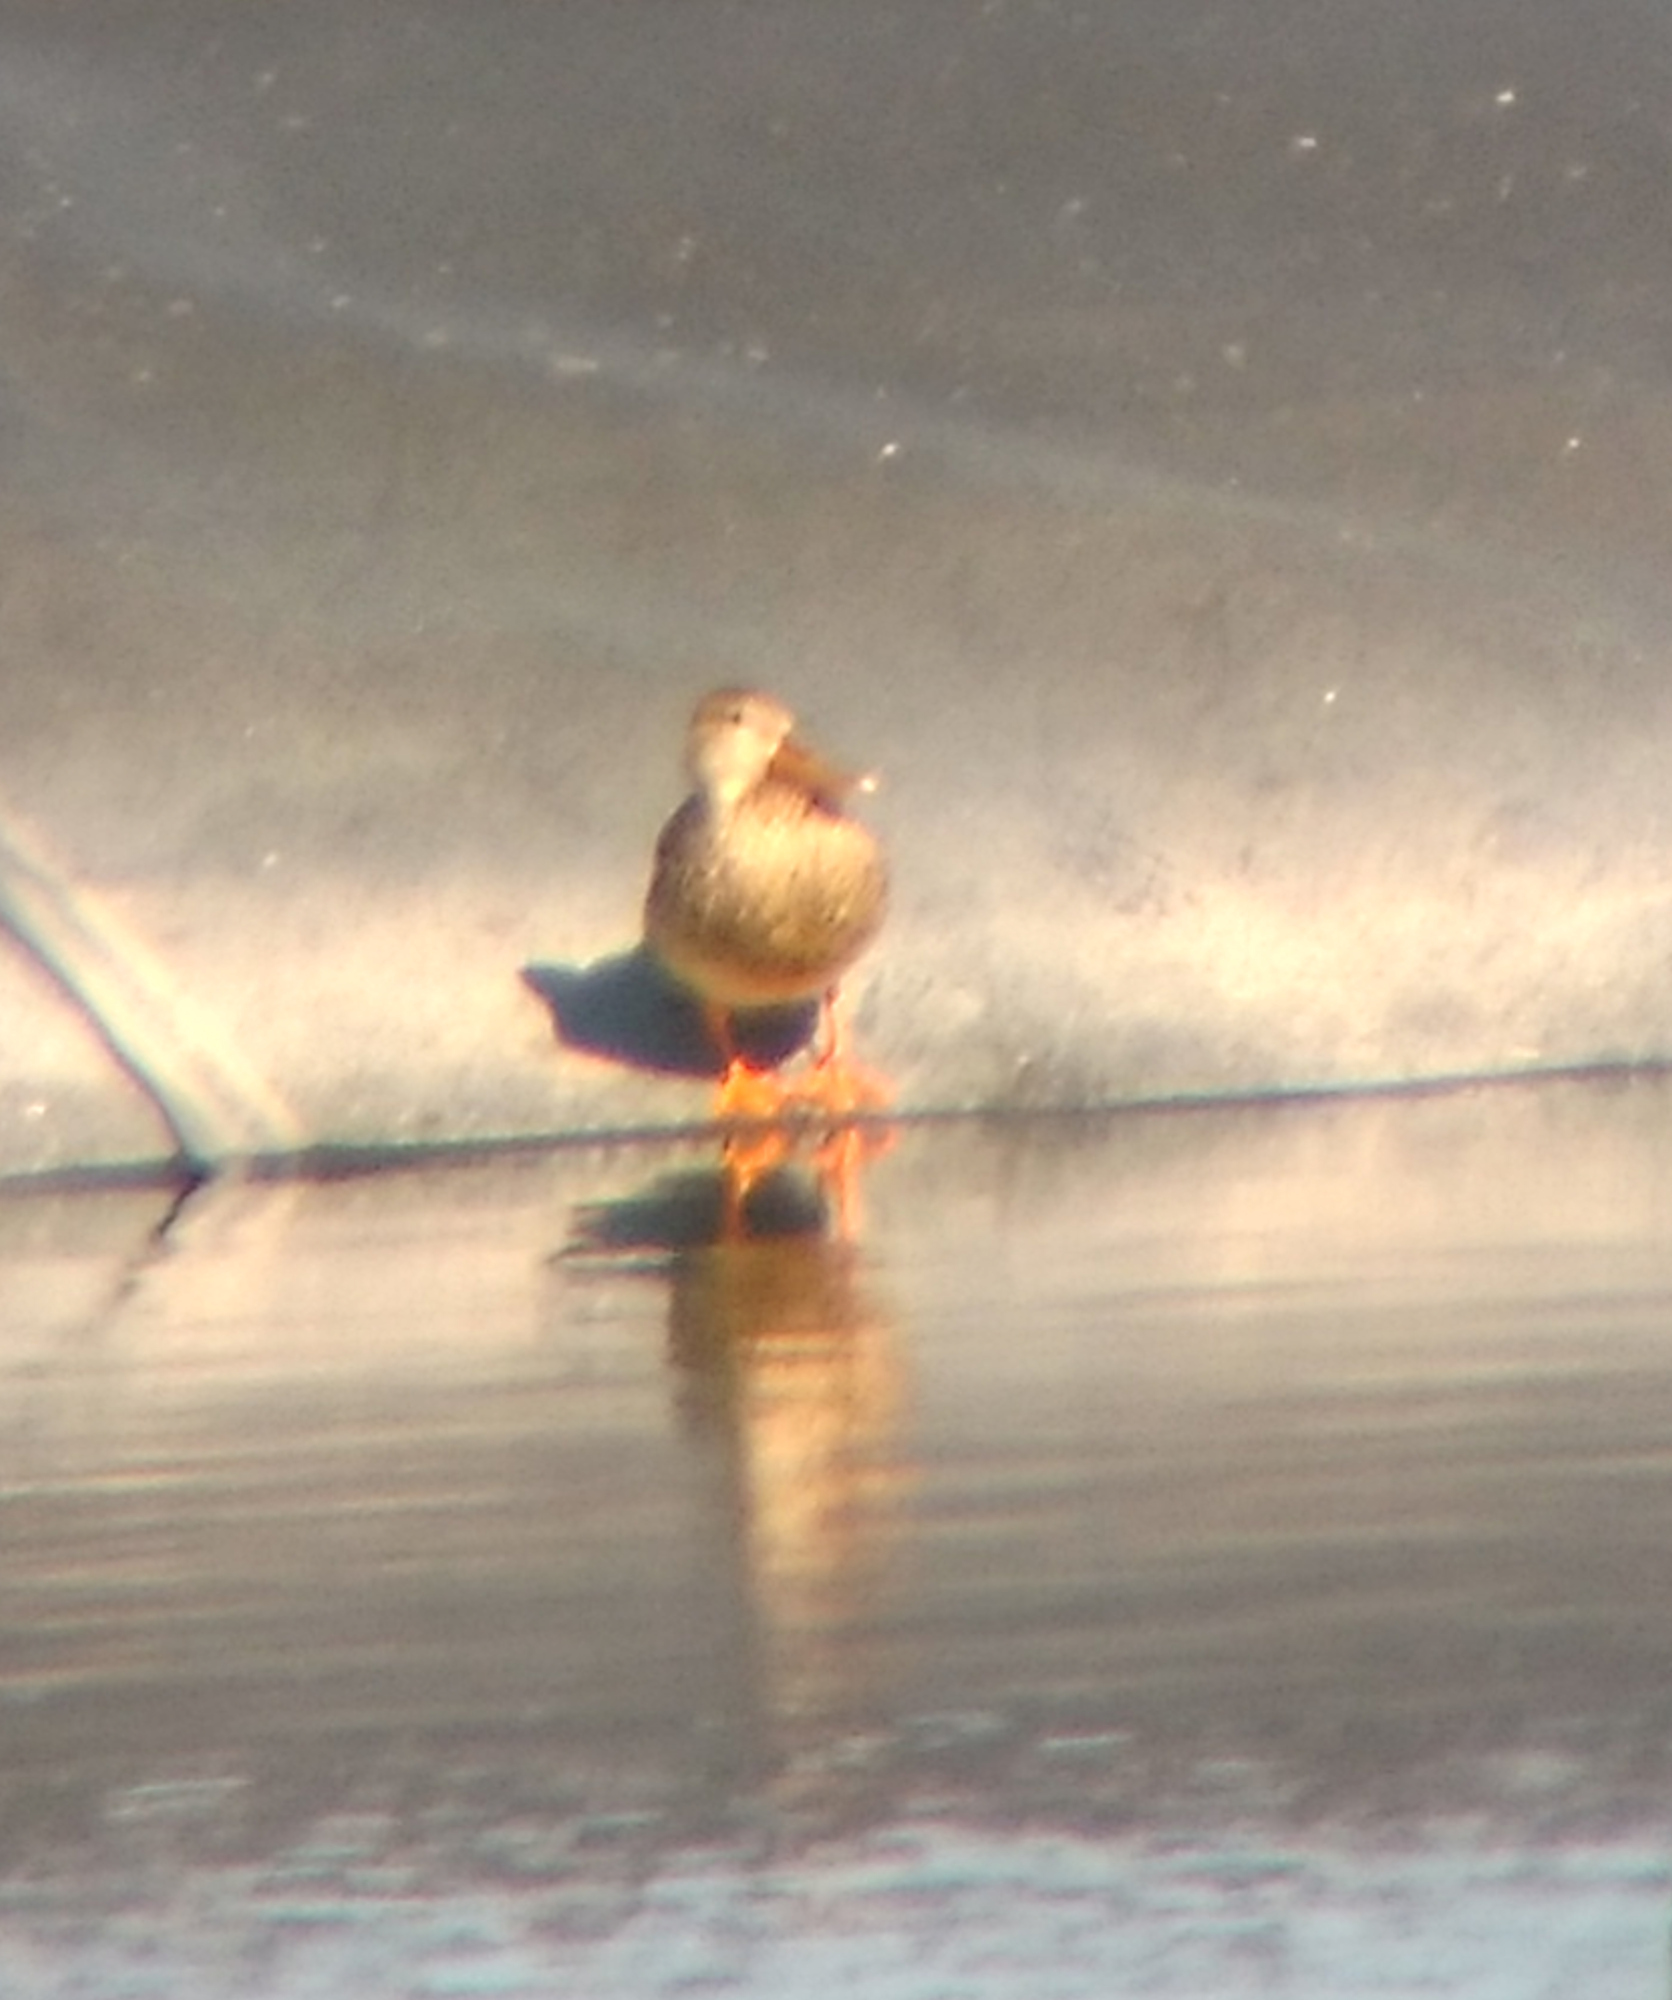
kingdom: Animalia
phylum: Chordata
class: Aves
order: Anseriformes
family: Anatidae
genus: Spatula
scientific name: Spatula clypeata
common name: Northern shoveler
